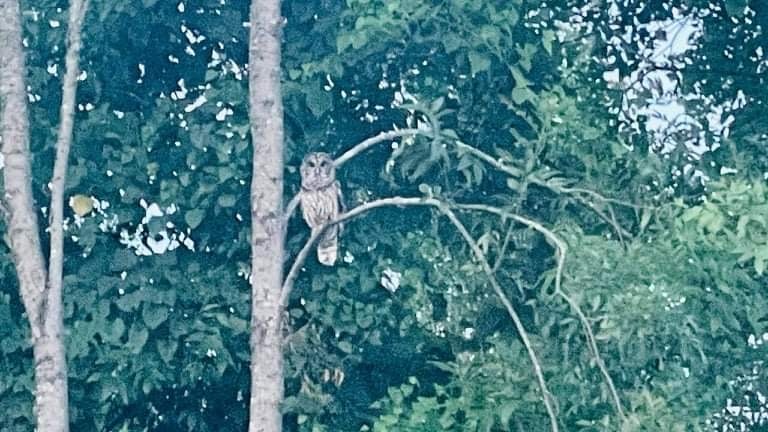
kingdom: Animalia
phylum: Chordata
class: Aves
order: Strigiformes
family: Strigidae
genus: Strix
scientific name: Strix varia
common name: Barred owl
